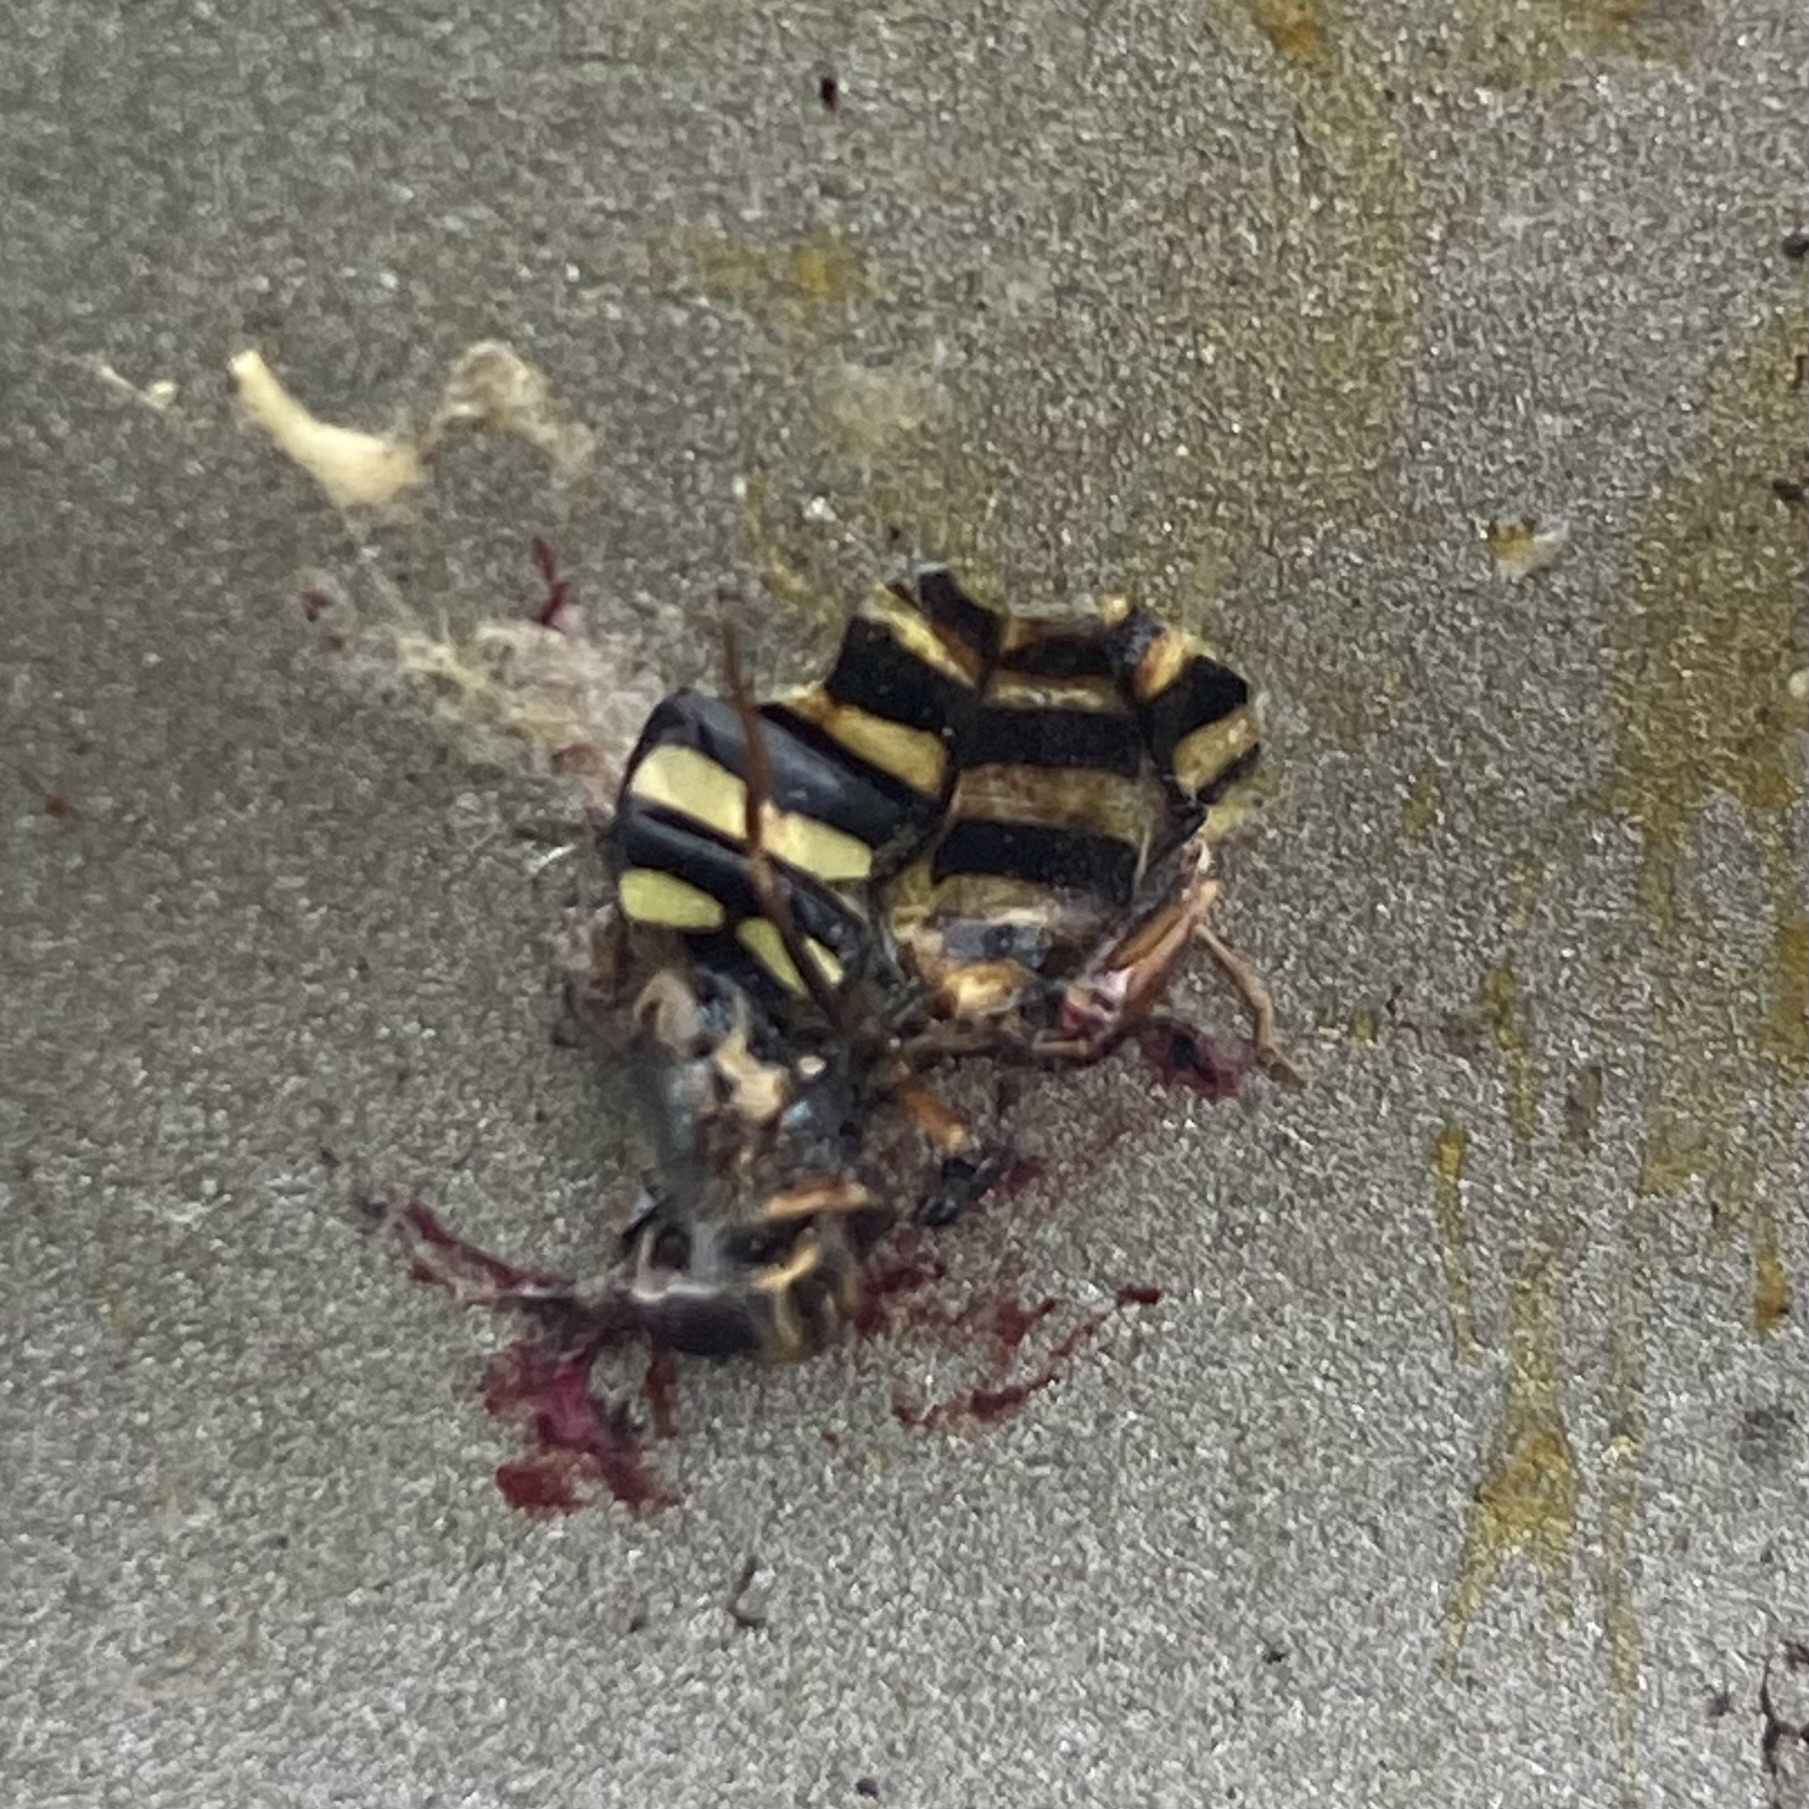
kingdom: Animalia
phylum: Arthropoda
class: Insecta
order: Diptera
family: Syrphidae
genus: Eupeodes
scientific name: Eupeodes
